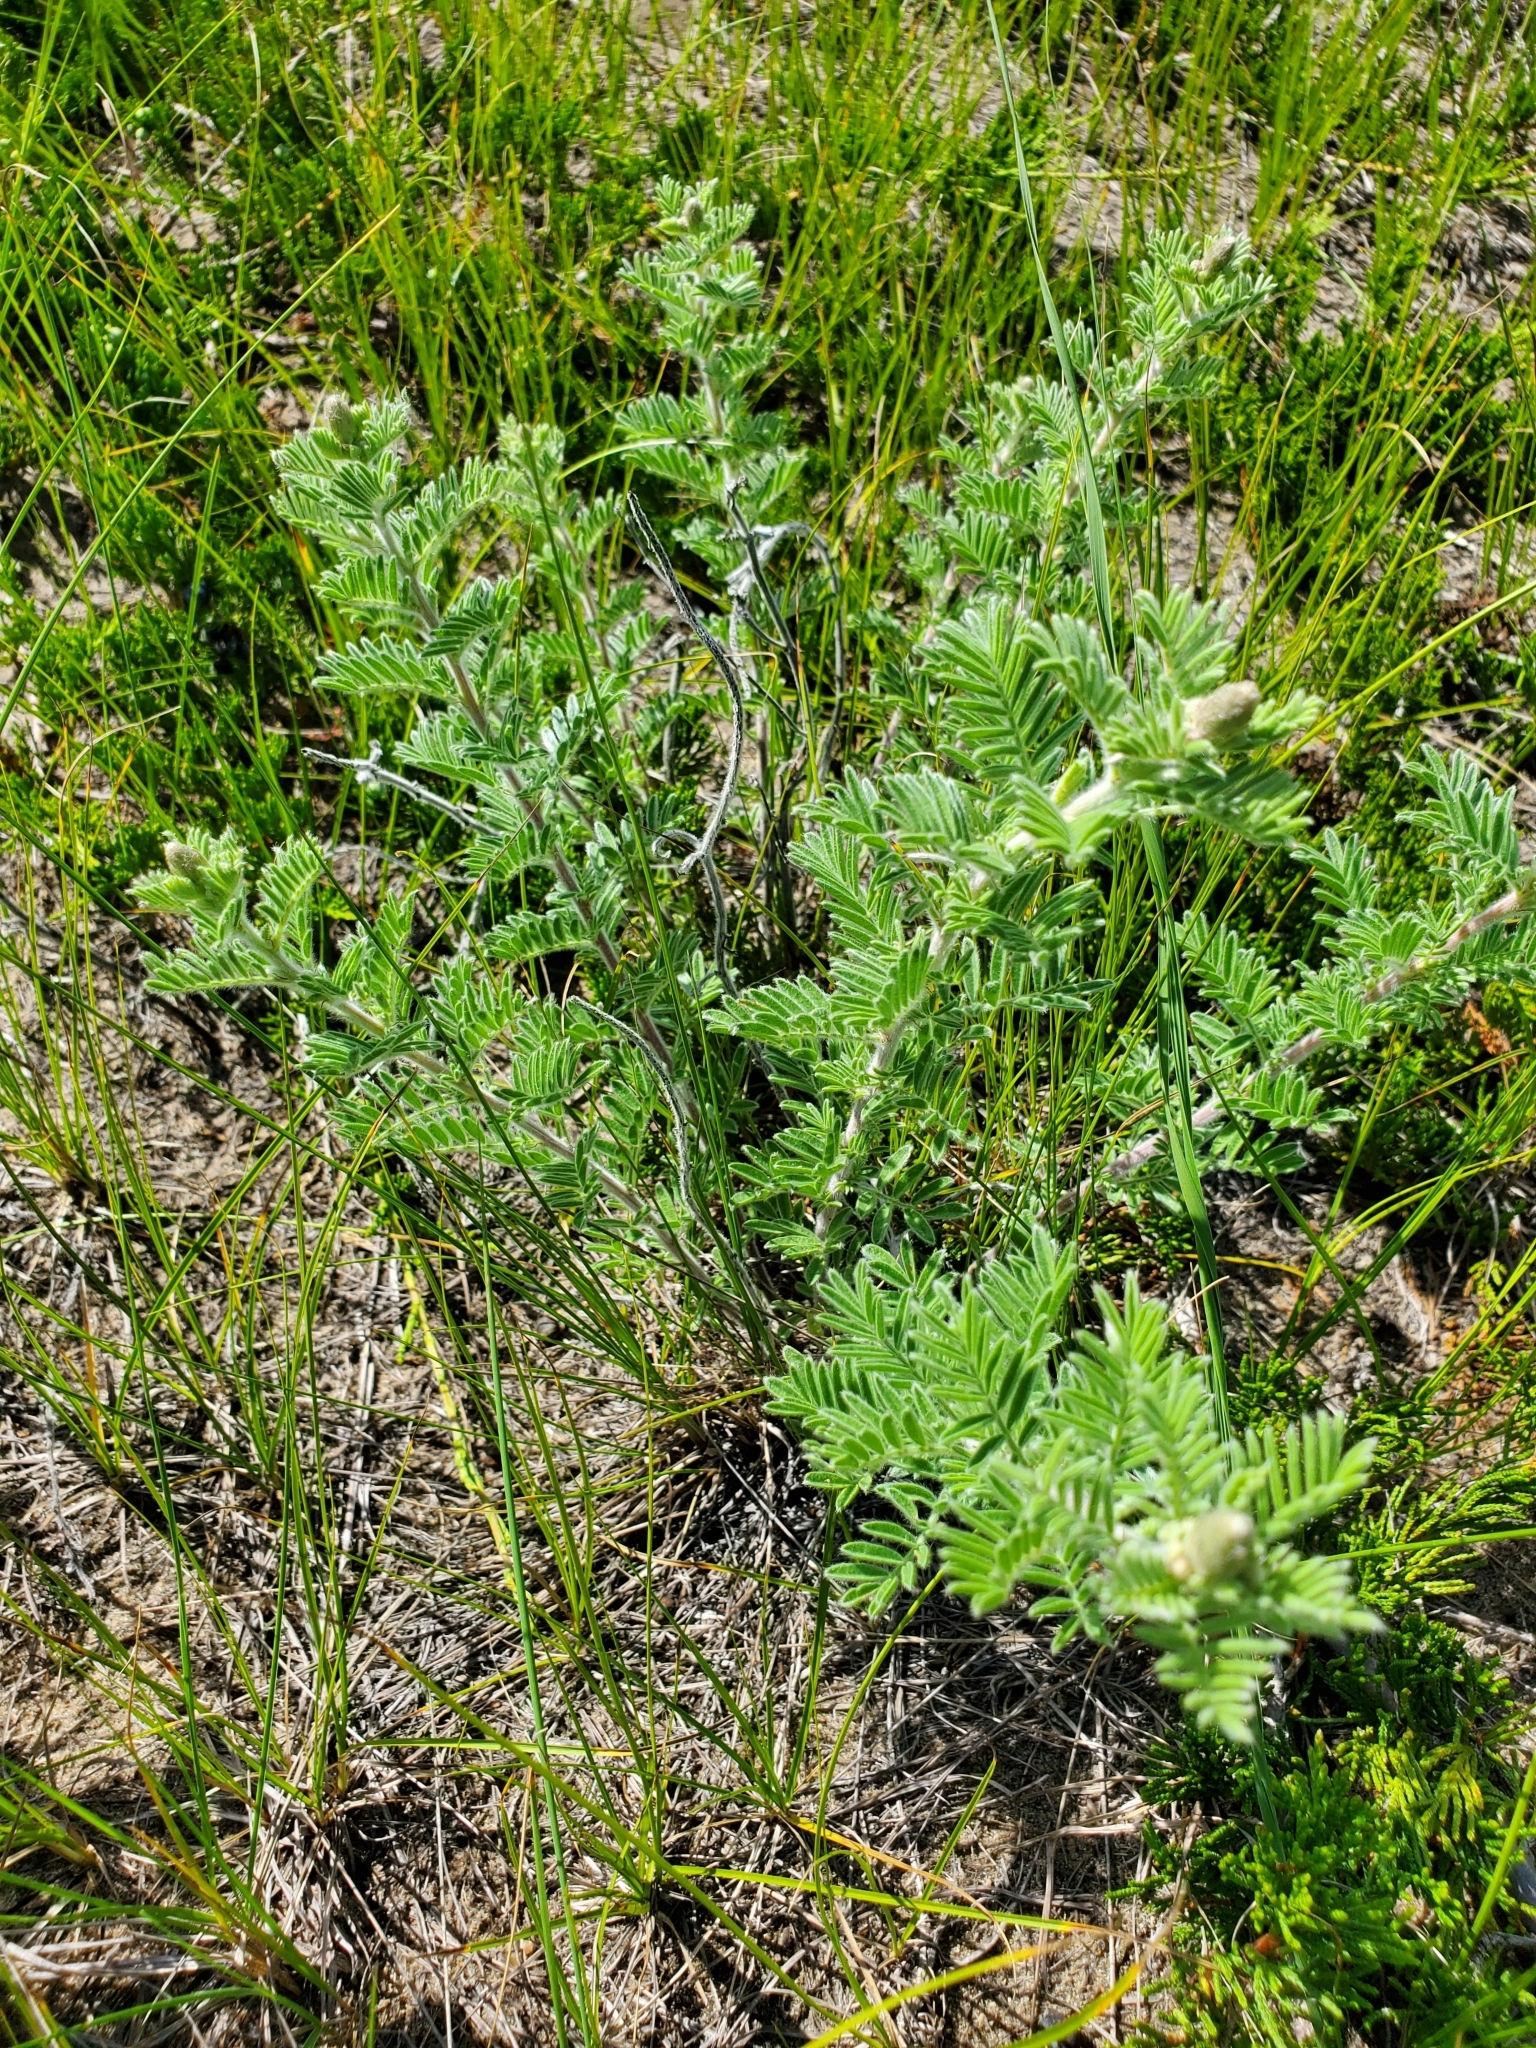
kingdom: Plantae
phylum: Tracheophyta
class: Magnoliopsida
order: Fabales
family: Fabaceae
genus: Dalea
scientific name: Dalea villosa
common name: Silky prairie-clover
